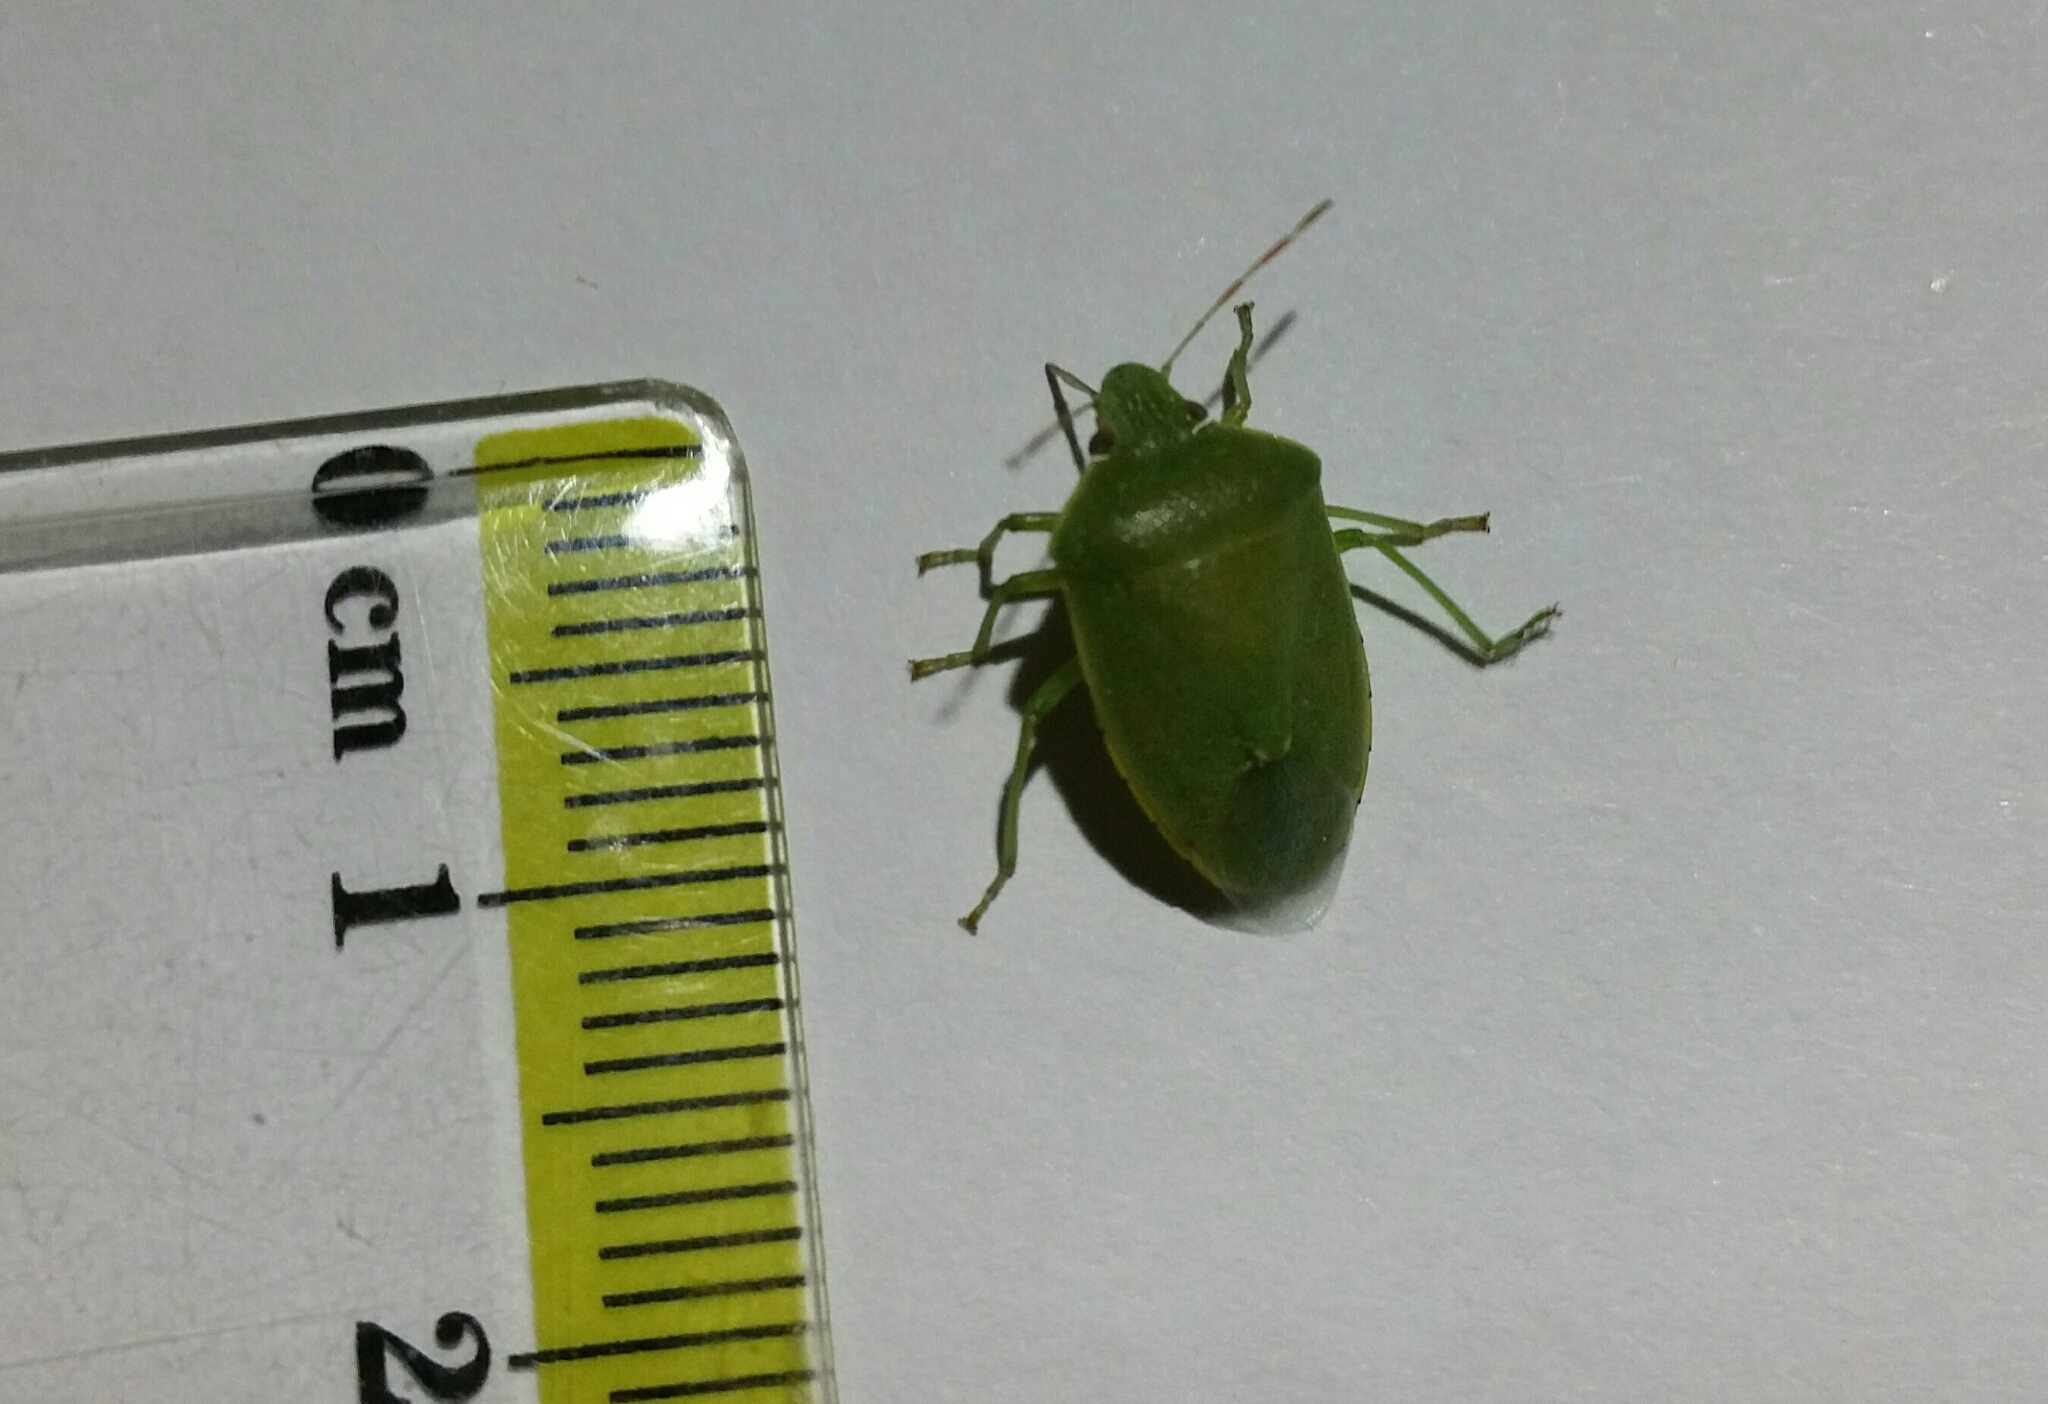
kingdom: Animalia
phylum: Arthropoda
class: Insecta
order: Hemiptera
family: Pentatomidae
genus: Acrosternum
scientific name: Acrosternum heegeri
